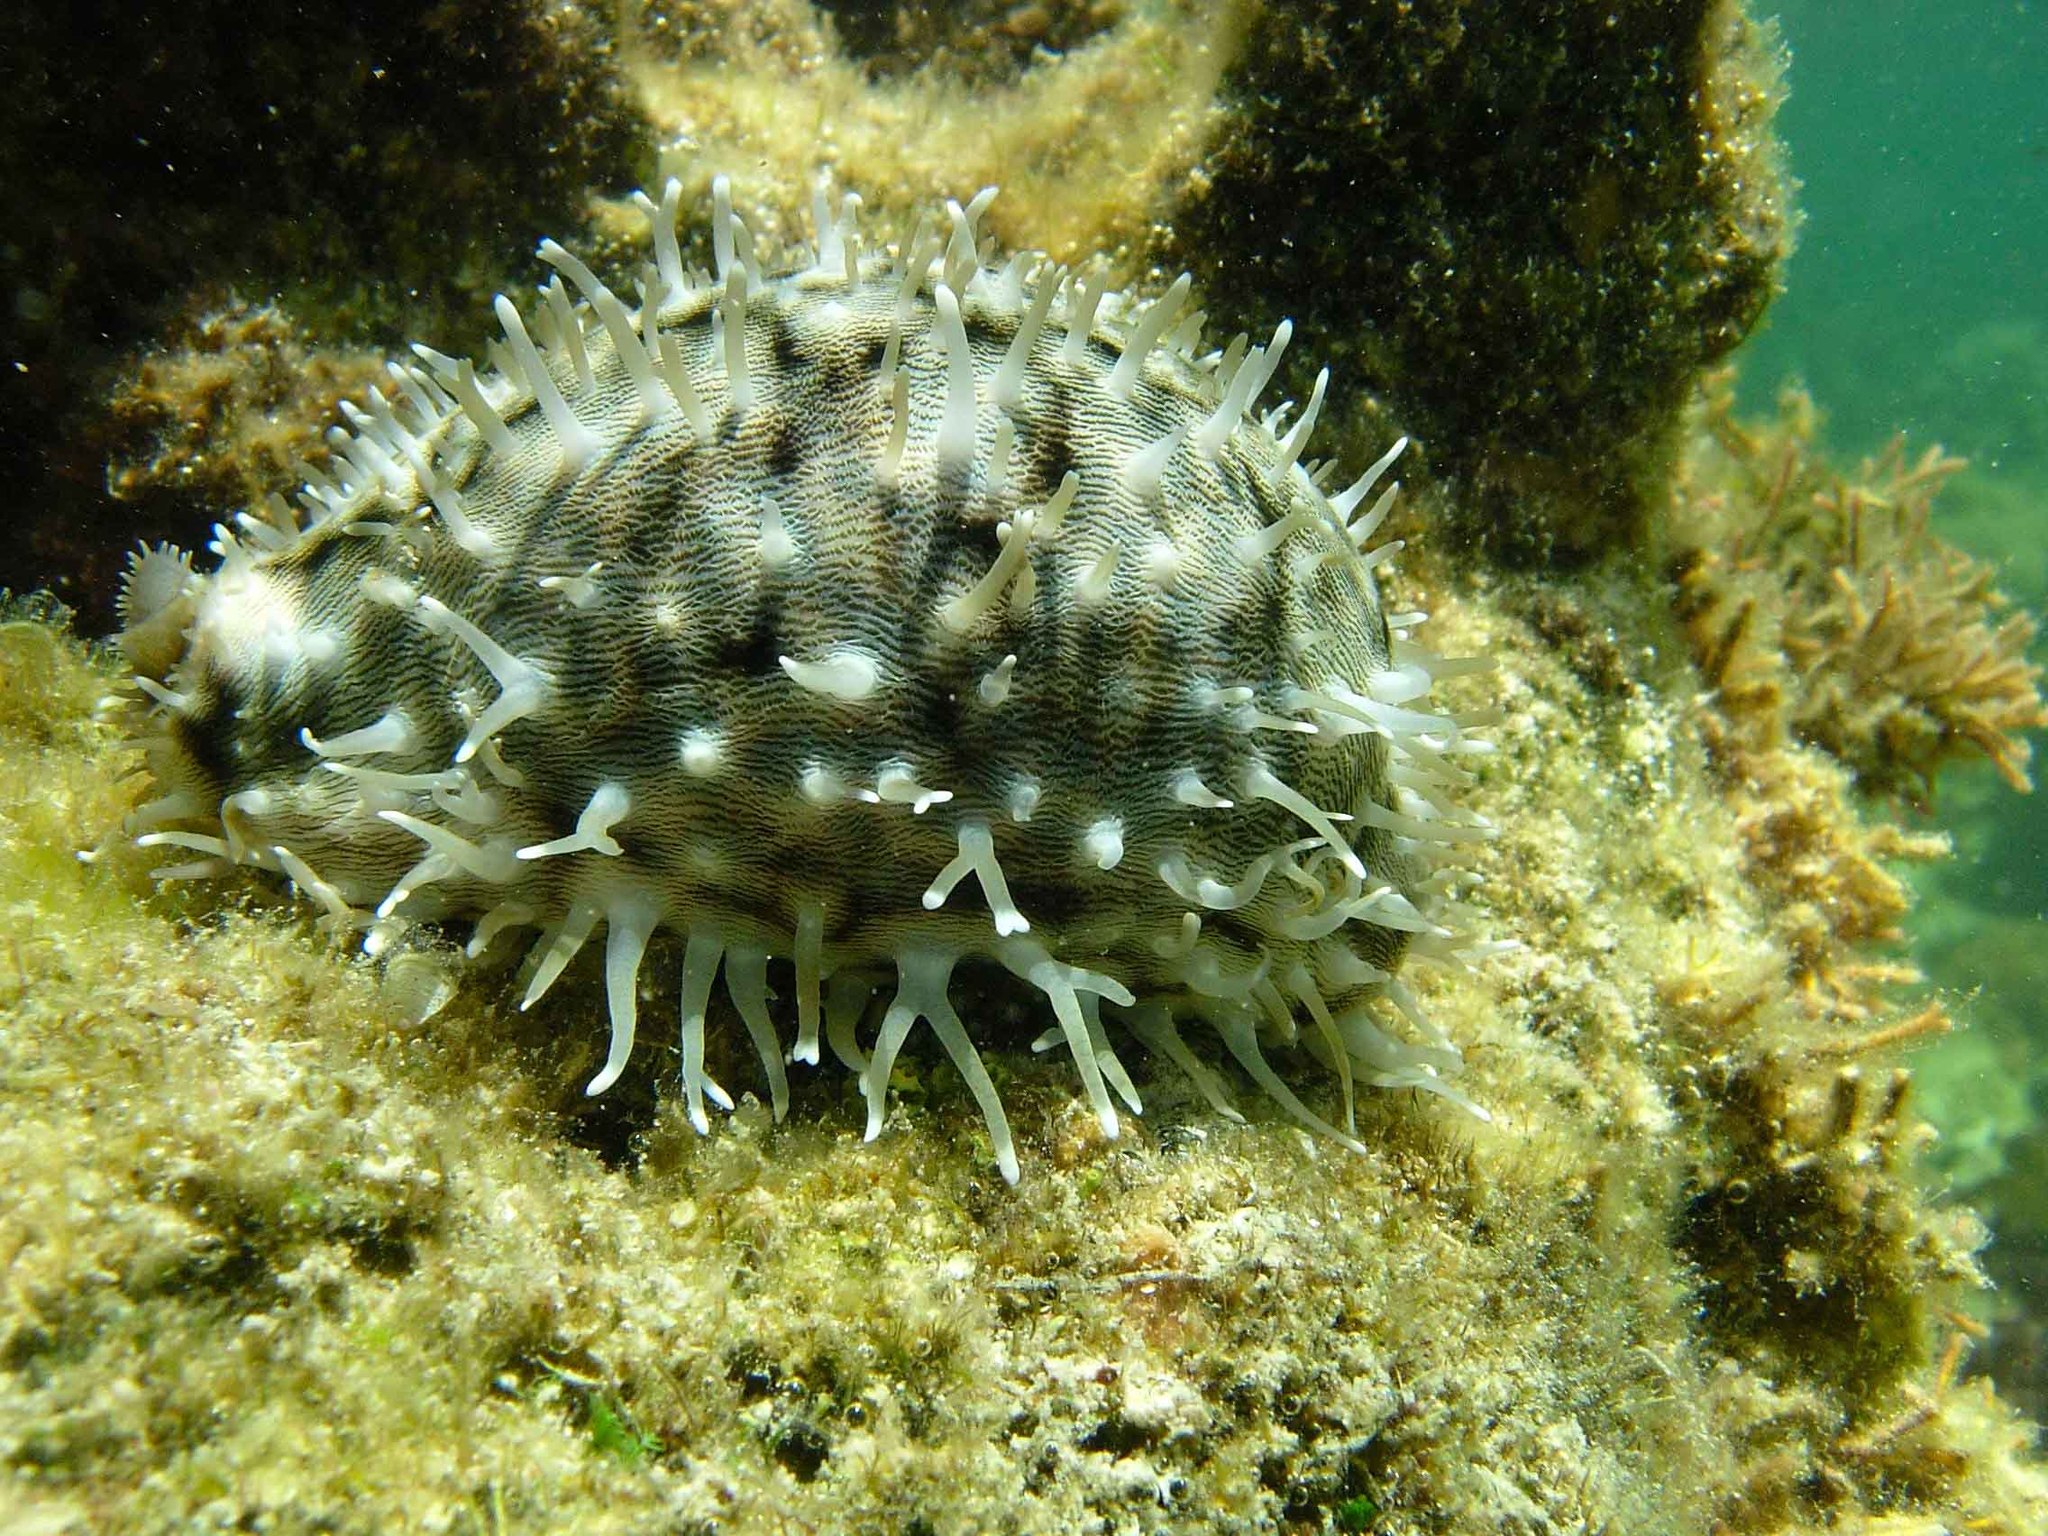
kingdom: Animalia
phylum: Mollusca
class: Gastropoda
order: Littorinimorpha
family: Cypraeidae
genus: Cypraea
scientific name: Cypraea tigris
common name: Tiger cowrie
